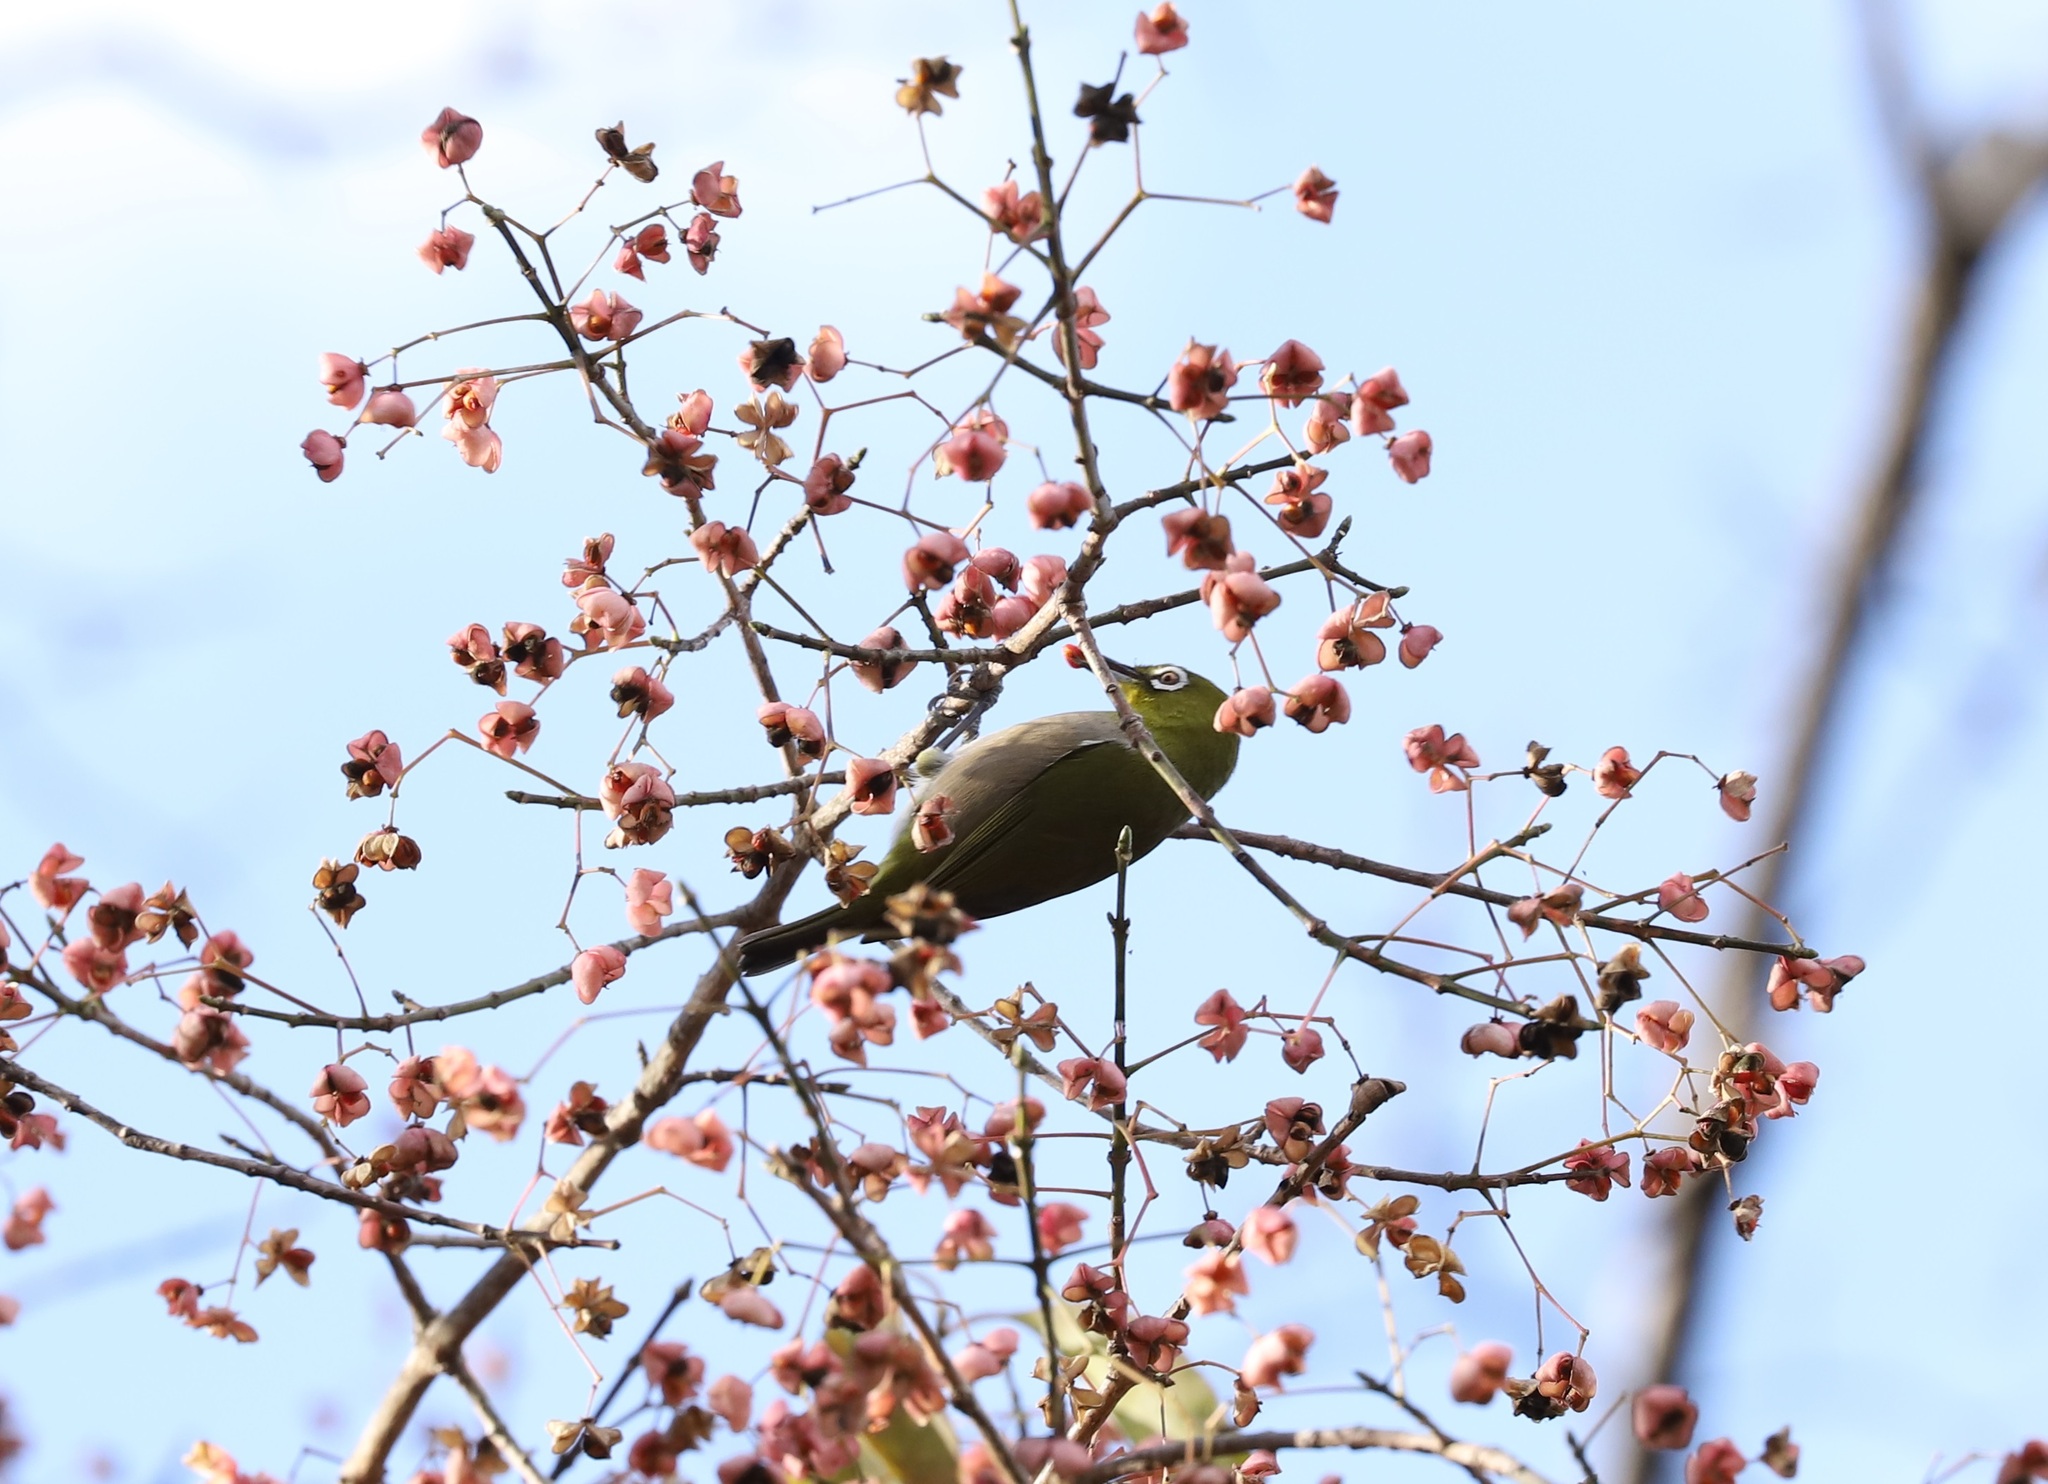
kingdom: Animalia
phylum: Chordata
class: Aves
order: Passeriformes
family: Zosteropidae
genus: Zosterops
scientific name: Zosterops japonicus
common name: Japanese white-eye
